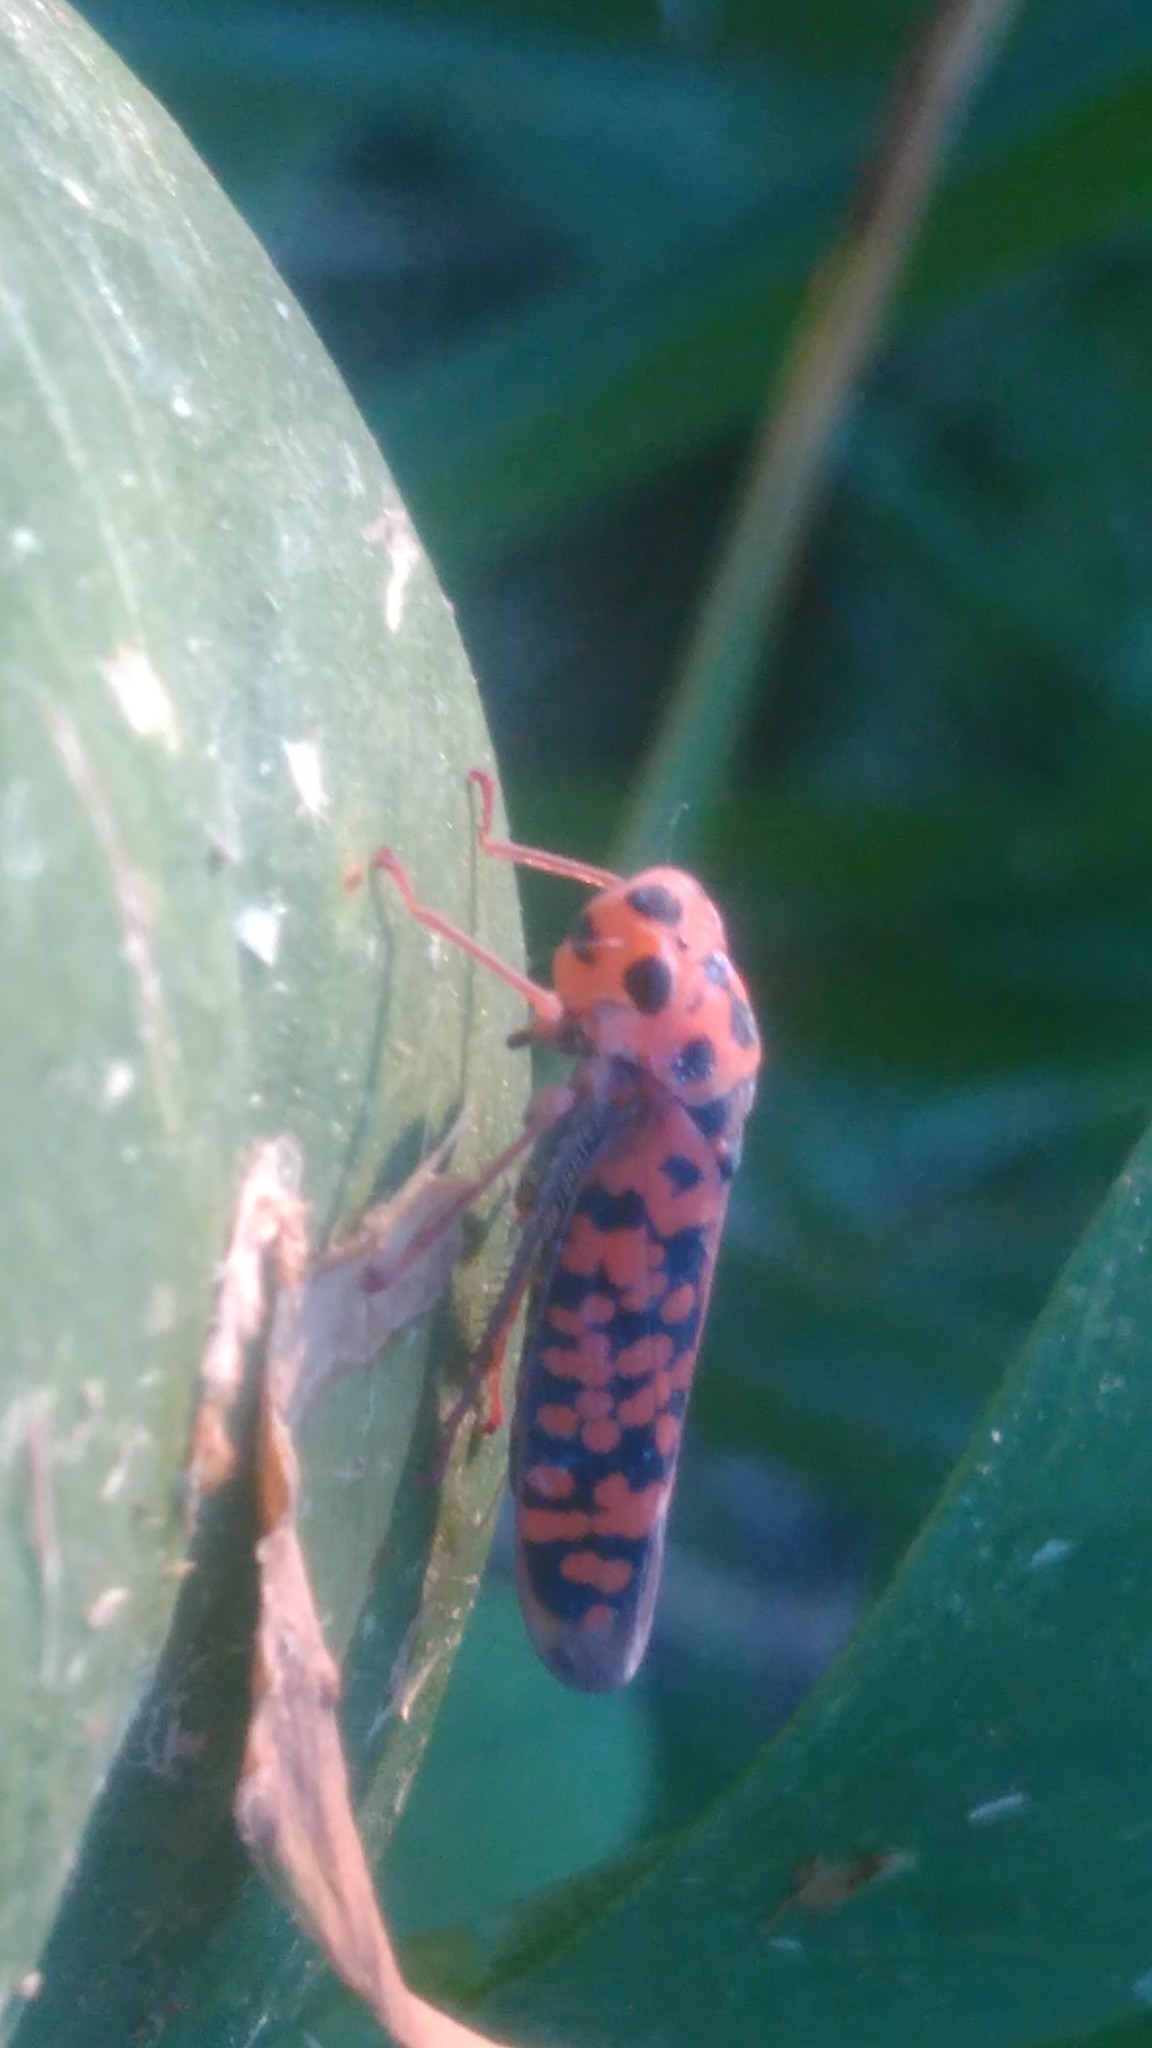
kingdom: Animalia
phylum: Arthropoda
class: Insecta
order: Hemiptera
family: Cicadellidae
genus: Pawiloma
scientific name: Pawiloma victima
